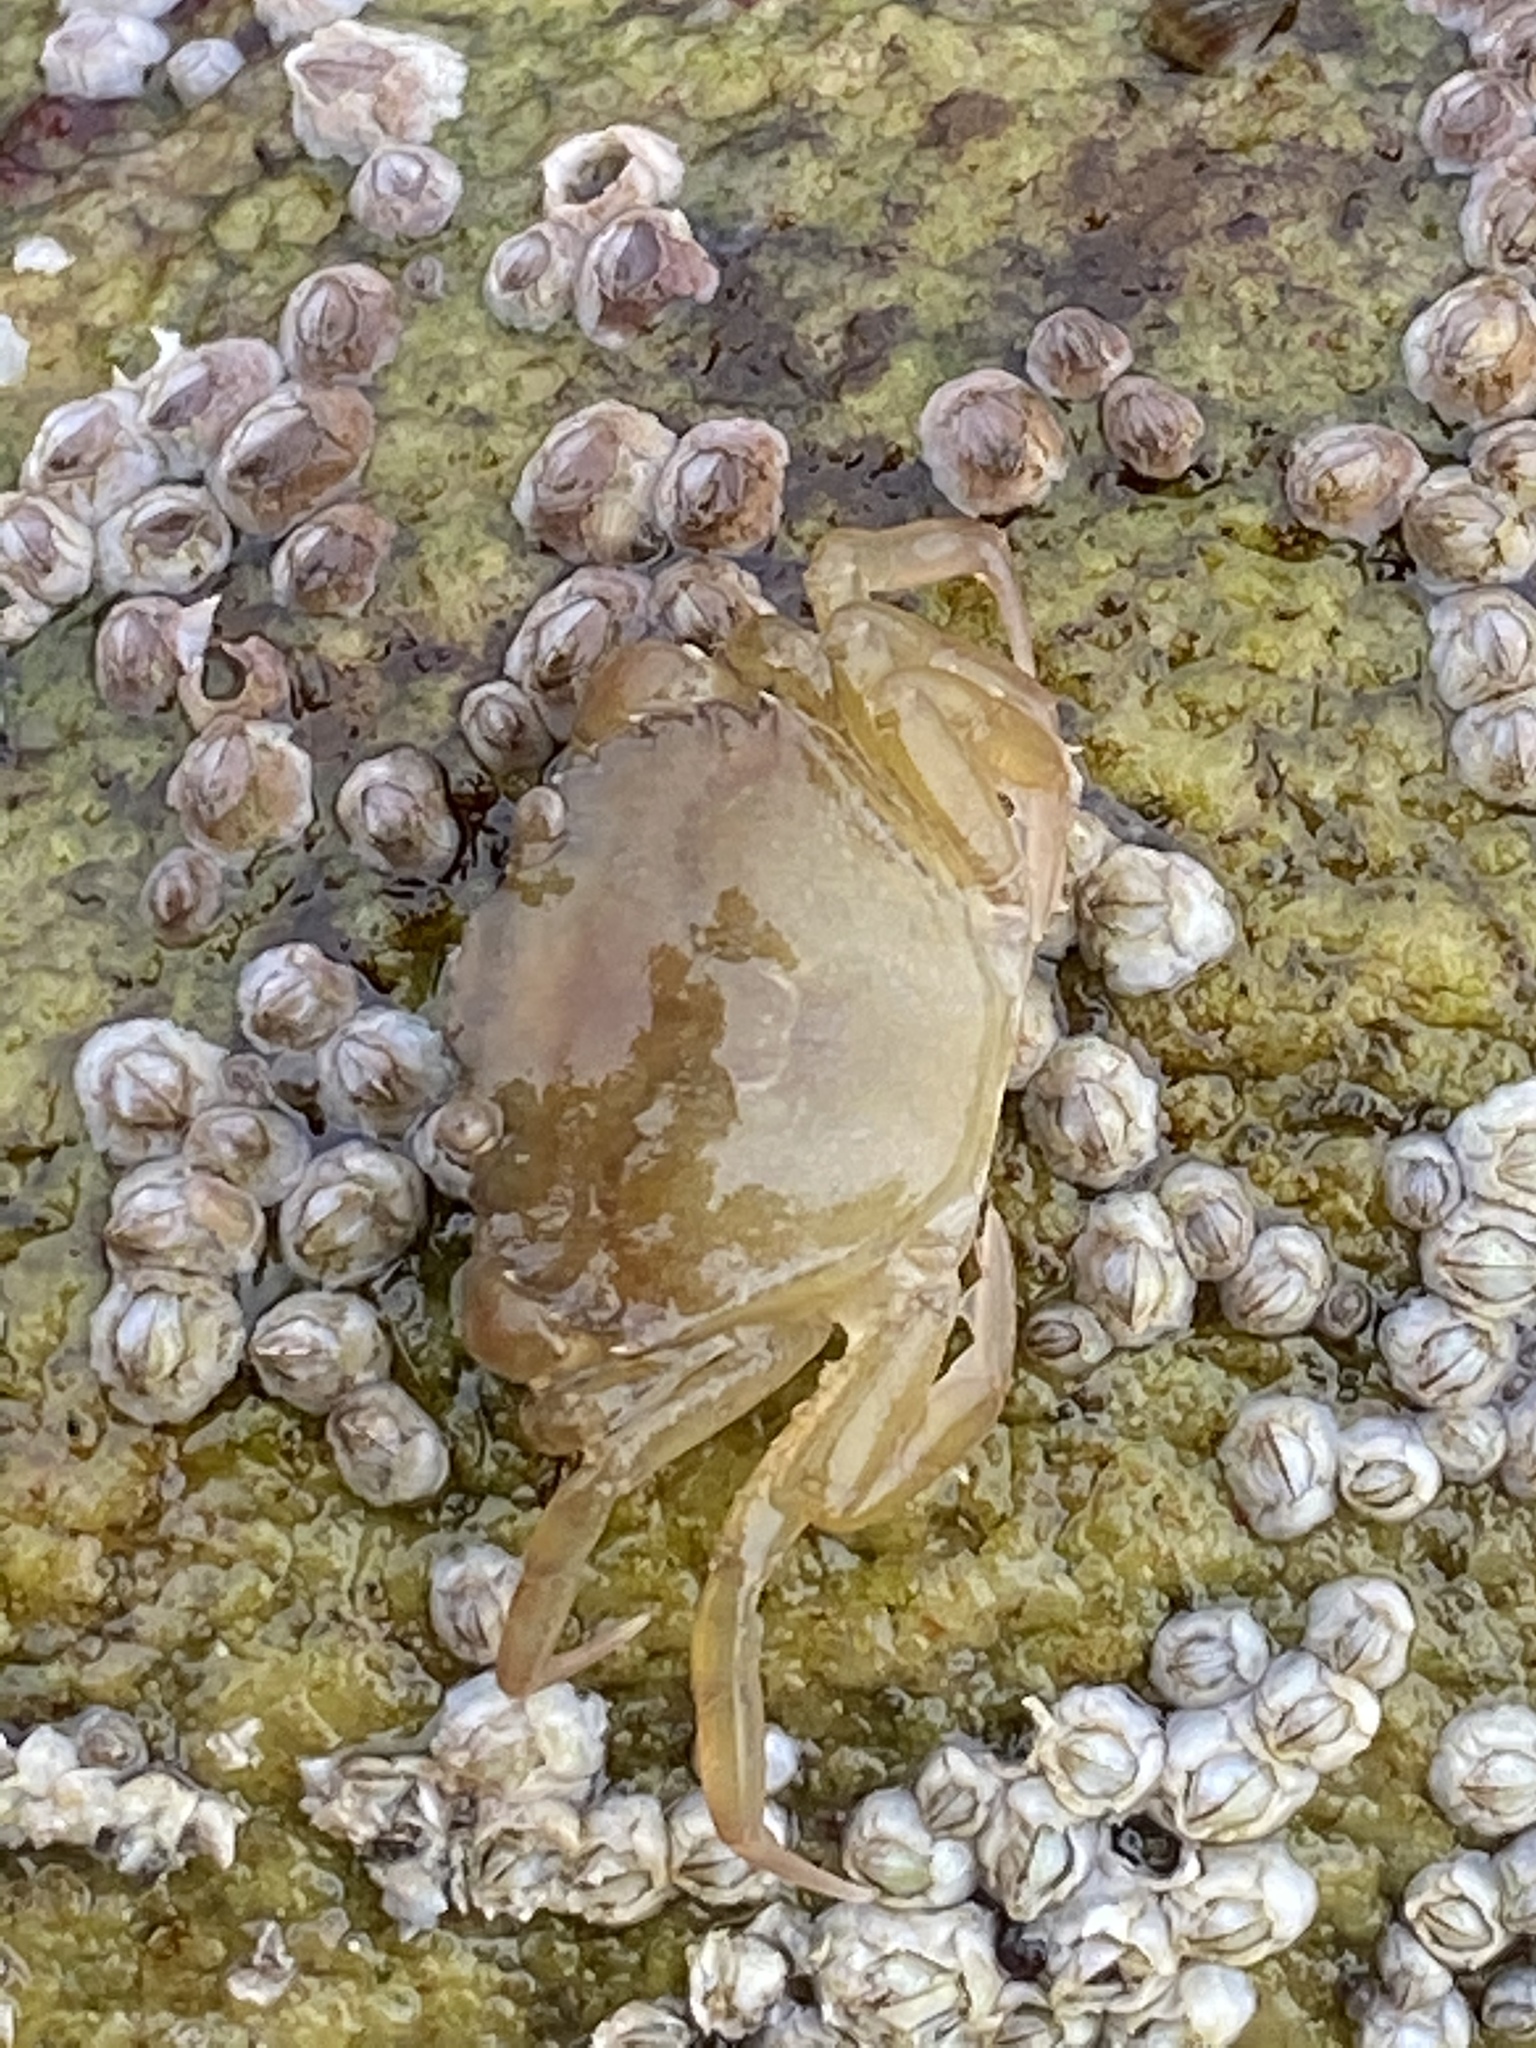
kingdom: Animalia
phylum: Arthropoda
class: Malacostraca
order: Decapoda
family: Carcinidae
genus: Carcinus
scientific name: Carcinus maenas
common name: European green crab
